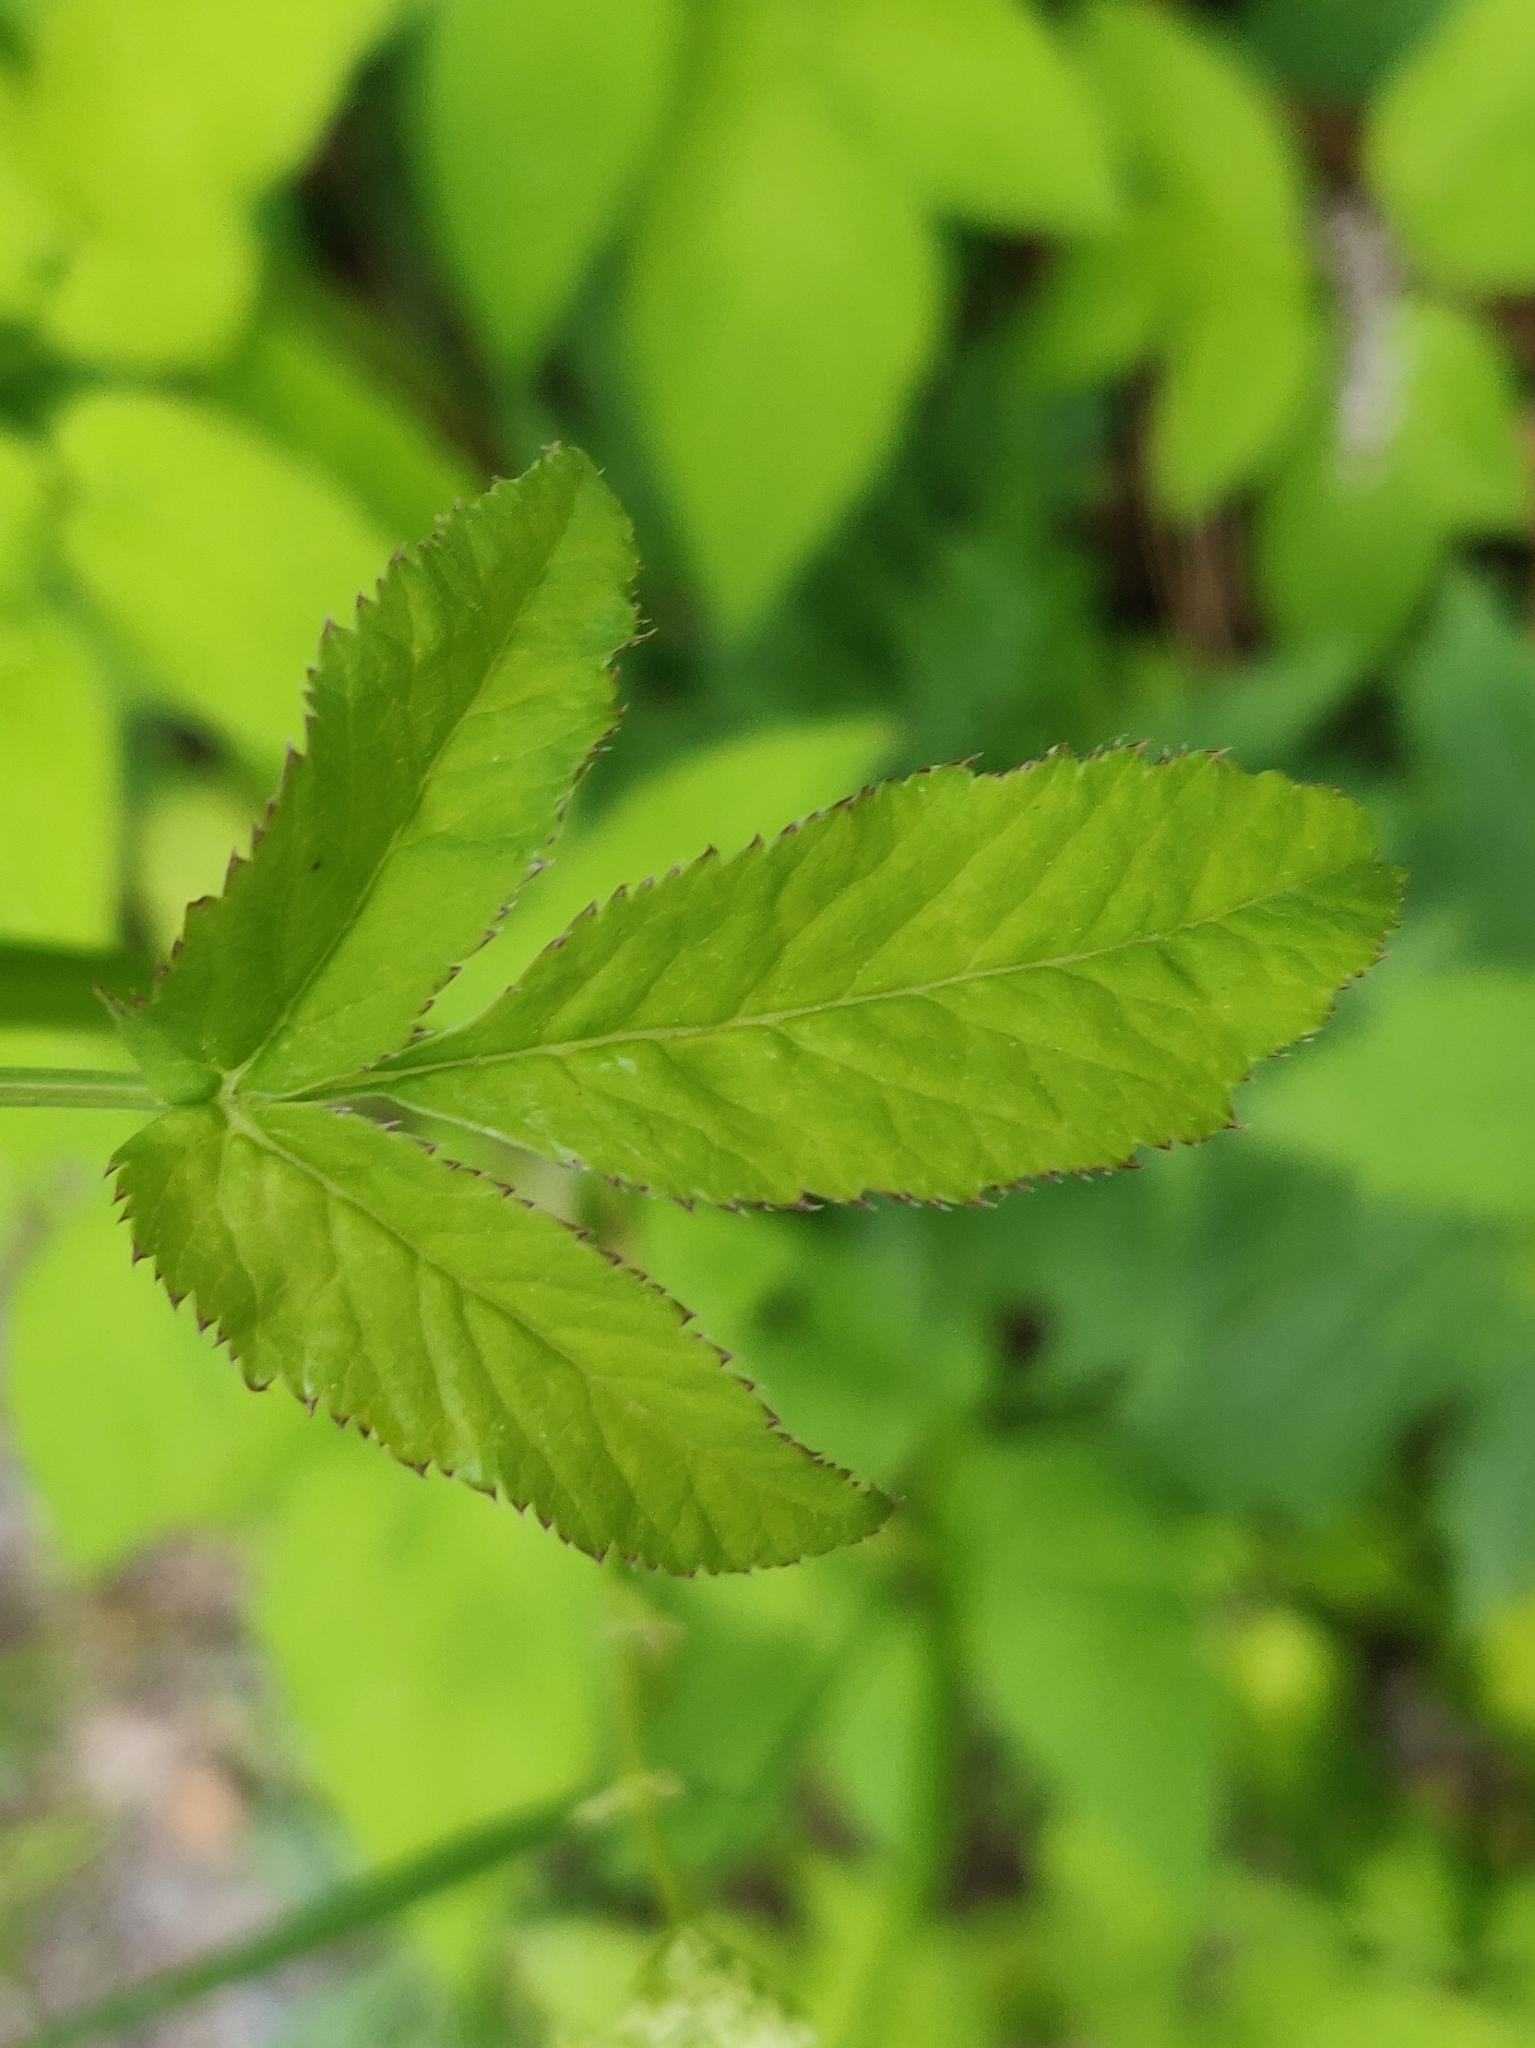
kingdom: Plantae
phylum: Tracheophyta
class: Magnoliopsida
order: Apiales
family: Apiaceae
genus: Aegopodium
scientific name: Aegopodium podagraria
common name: Ground-elder
